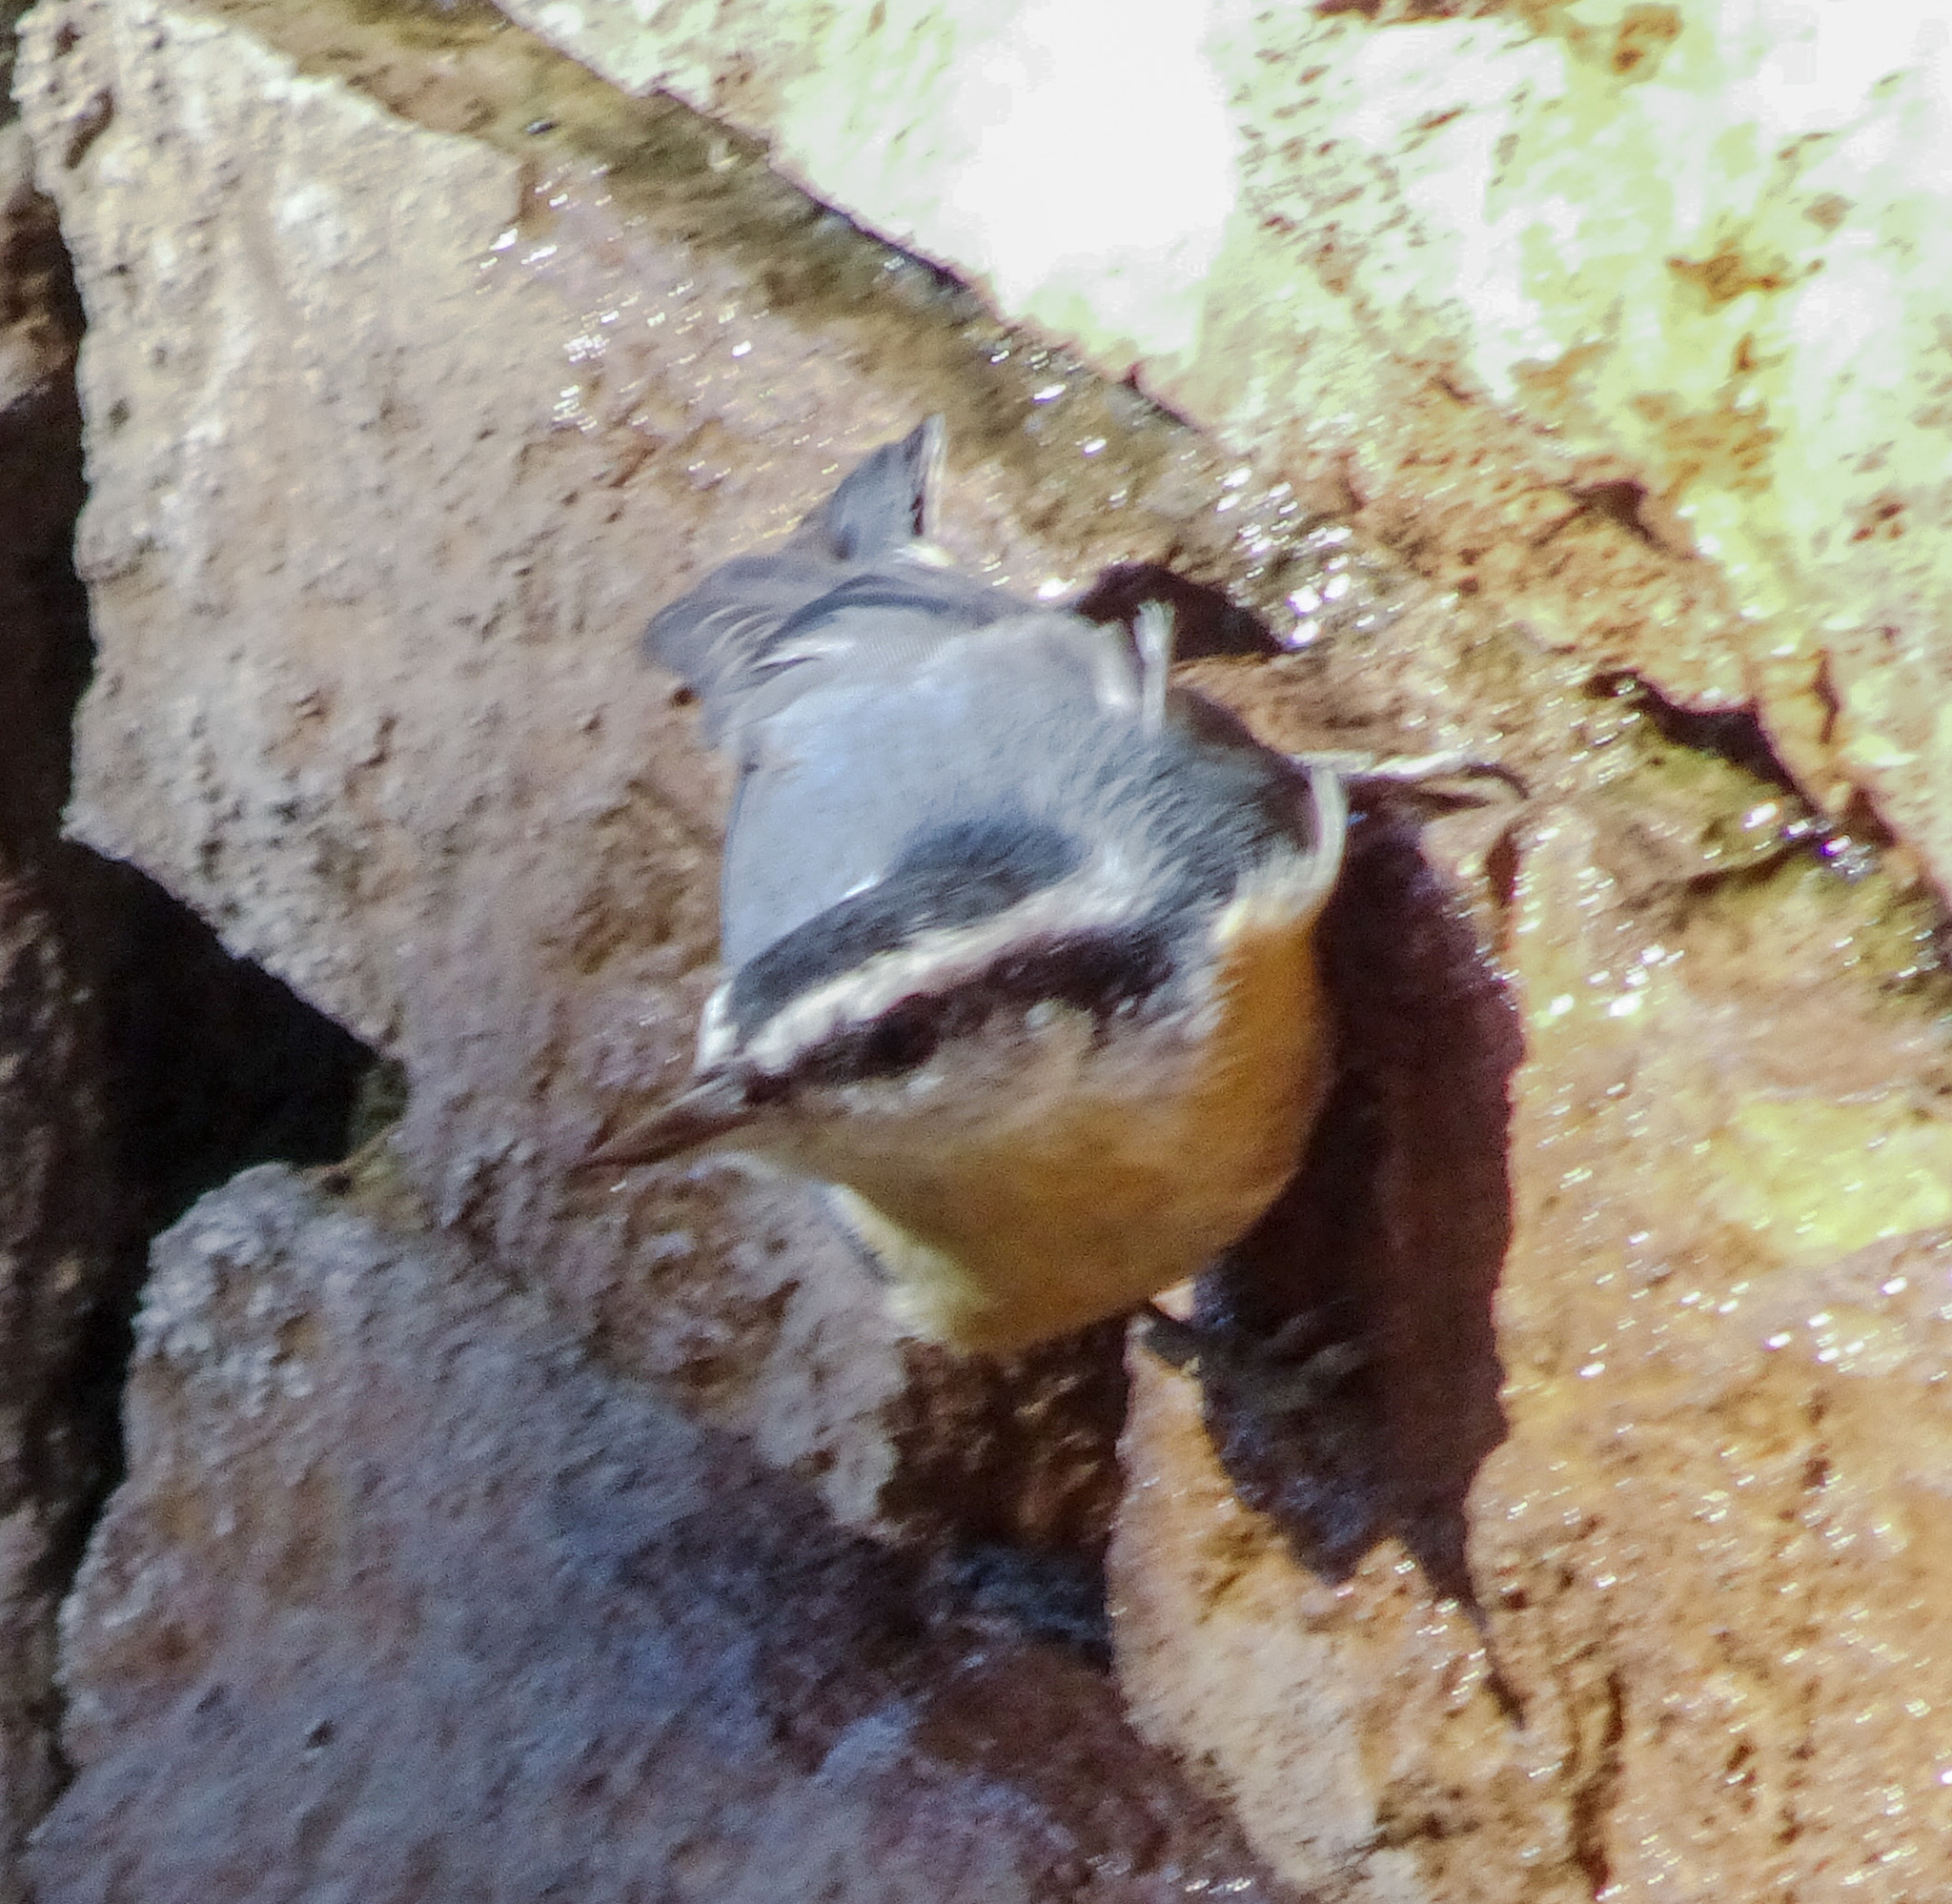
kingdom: Animalia
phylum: Chordata
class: Aves
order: Passeriformes
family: Sittidae
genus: Sitta
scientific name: Sitta canadensis
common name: Red-breasted nuthatch
